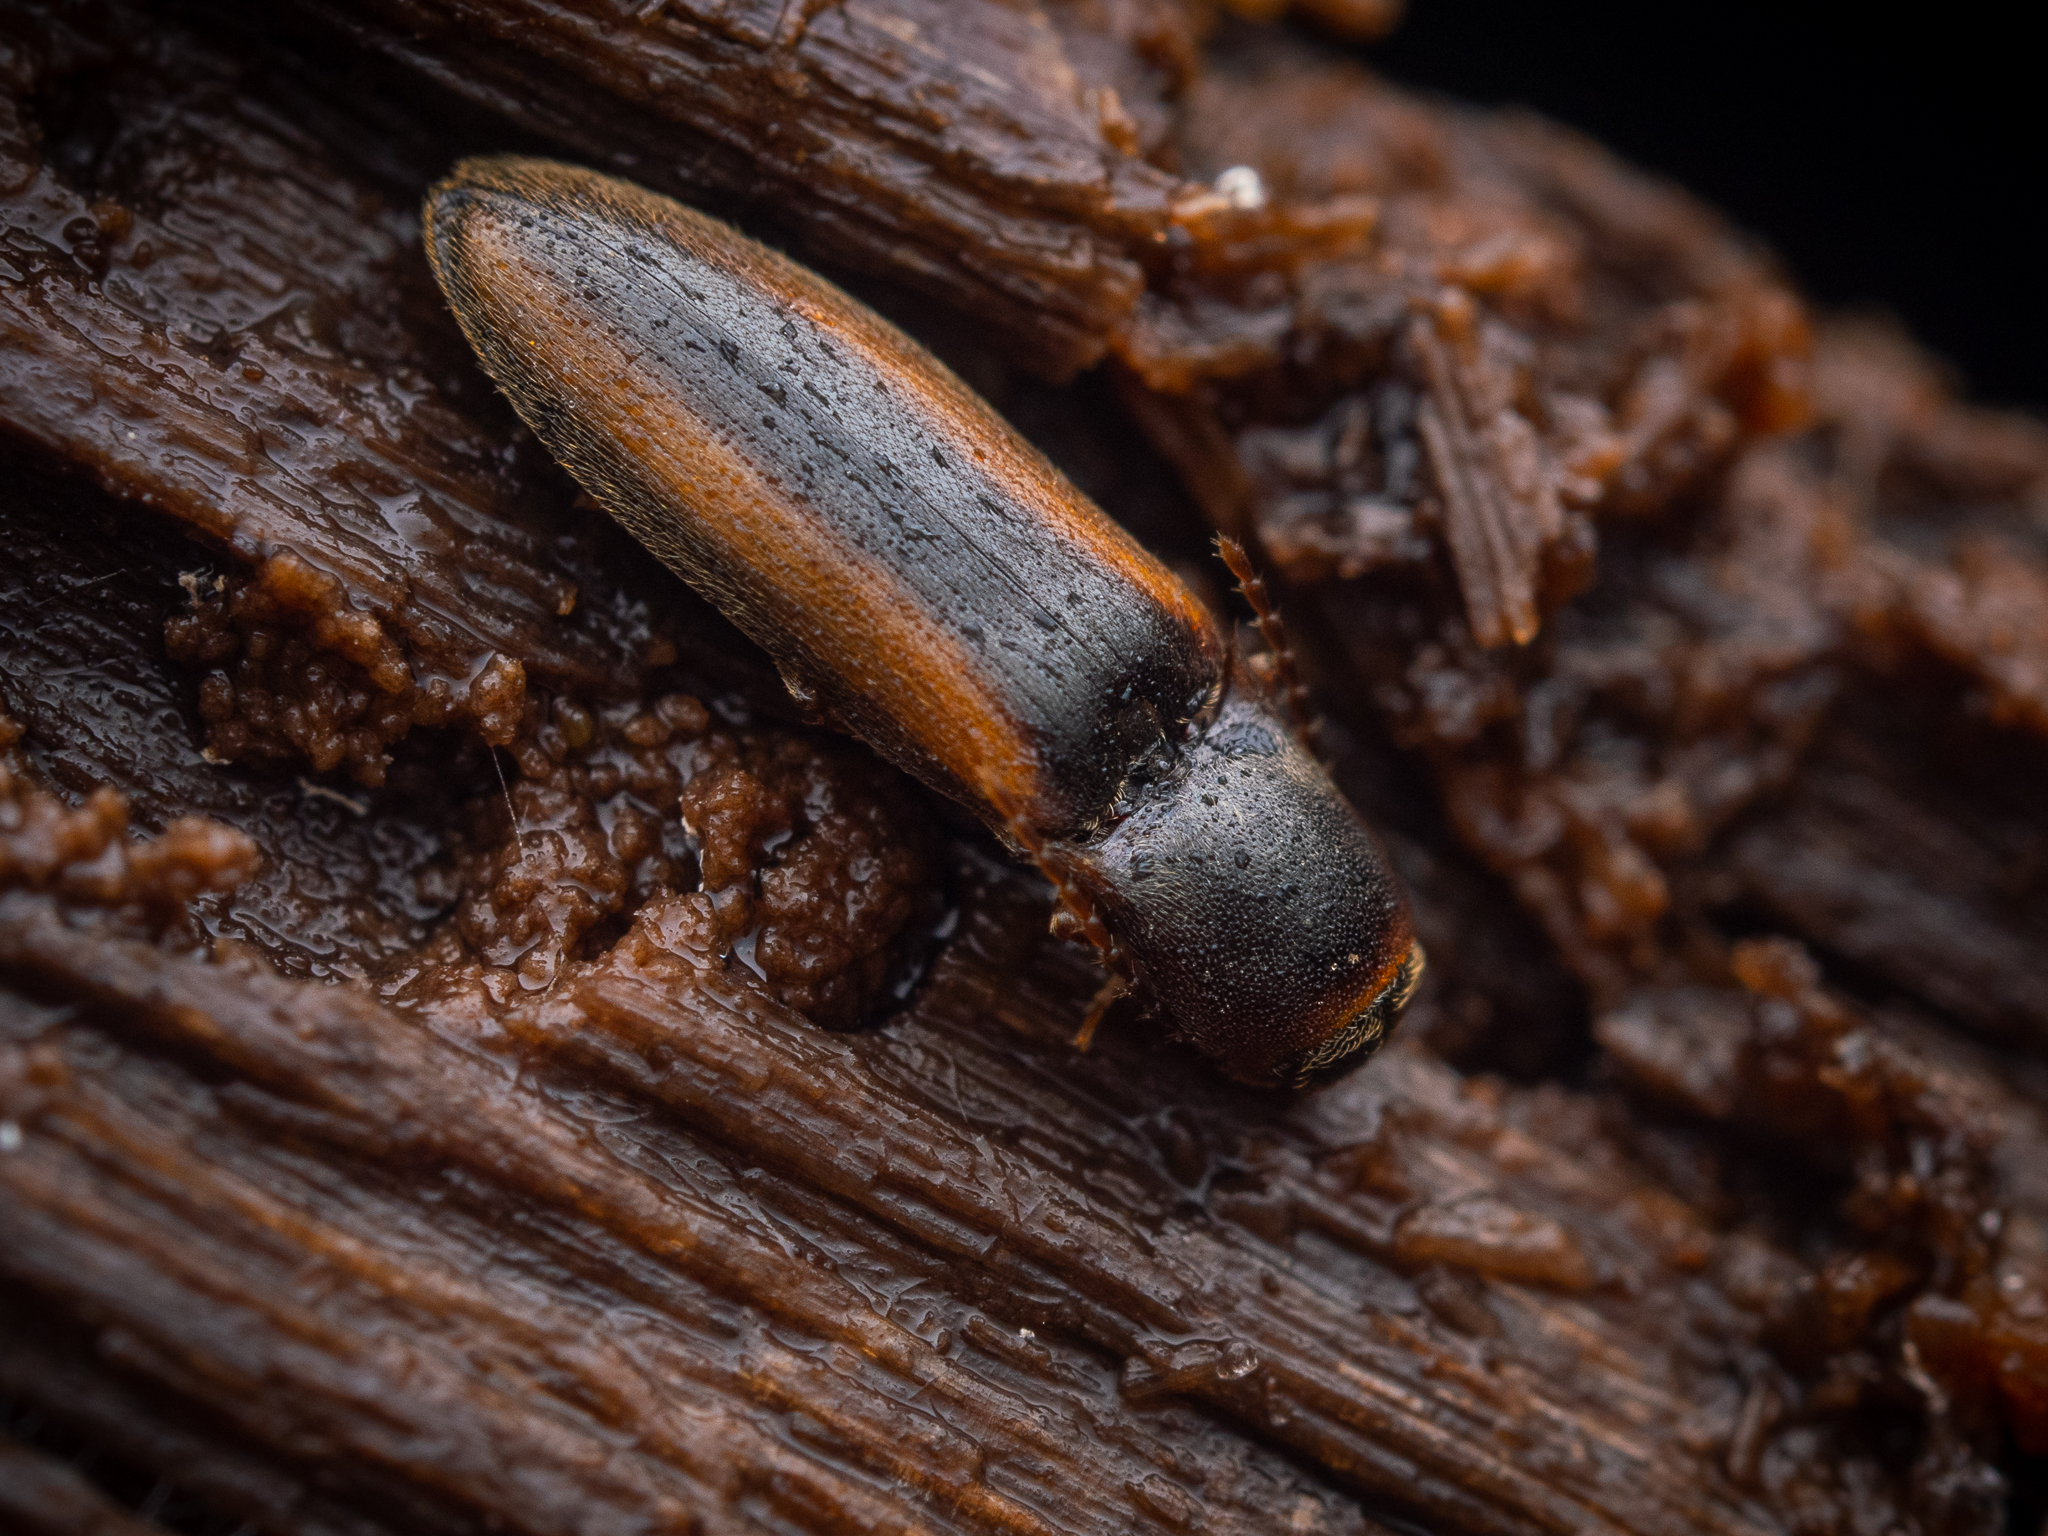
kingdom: Animalia
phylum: Arthropoda
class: Insecta
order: Coleoptera
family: Elateridae
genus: Dalopius
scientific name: Dalopius marginatus
